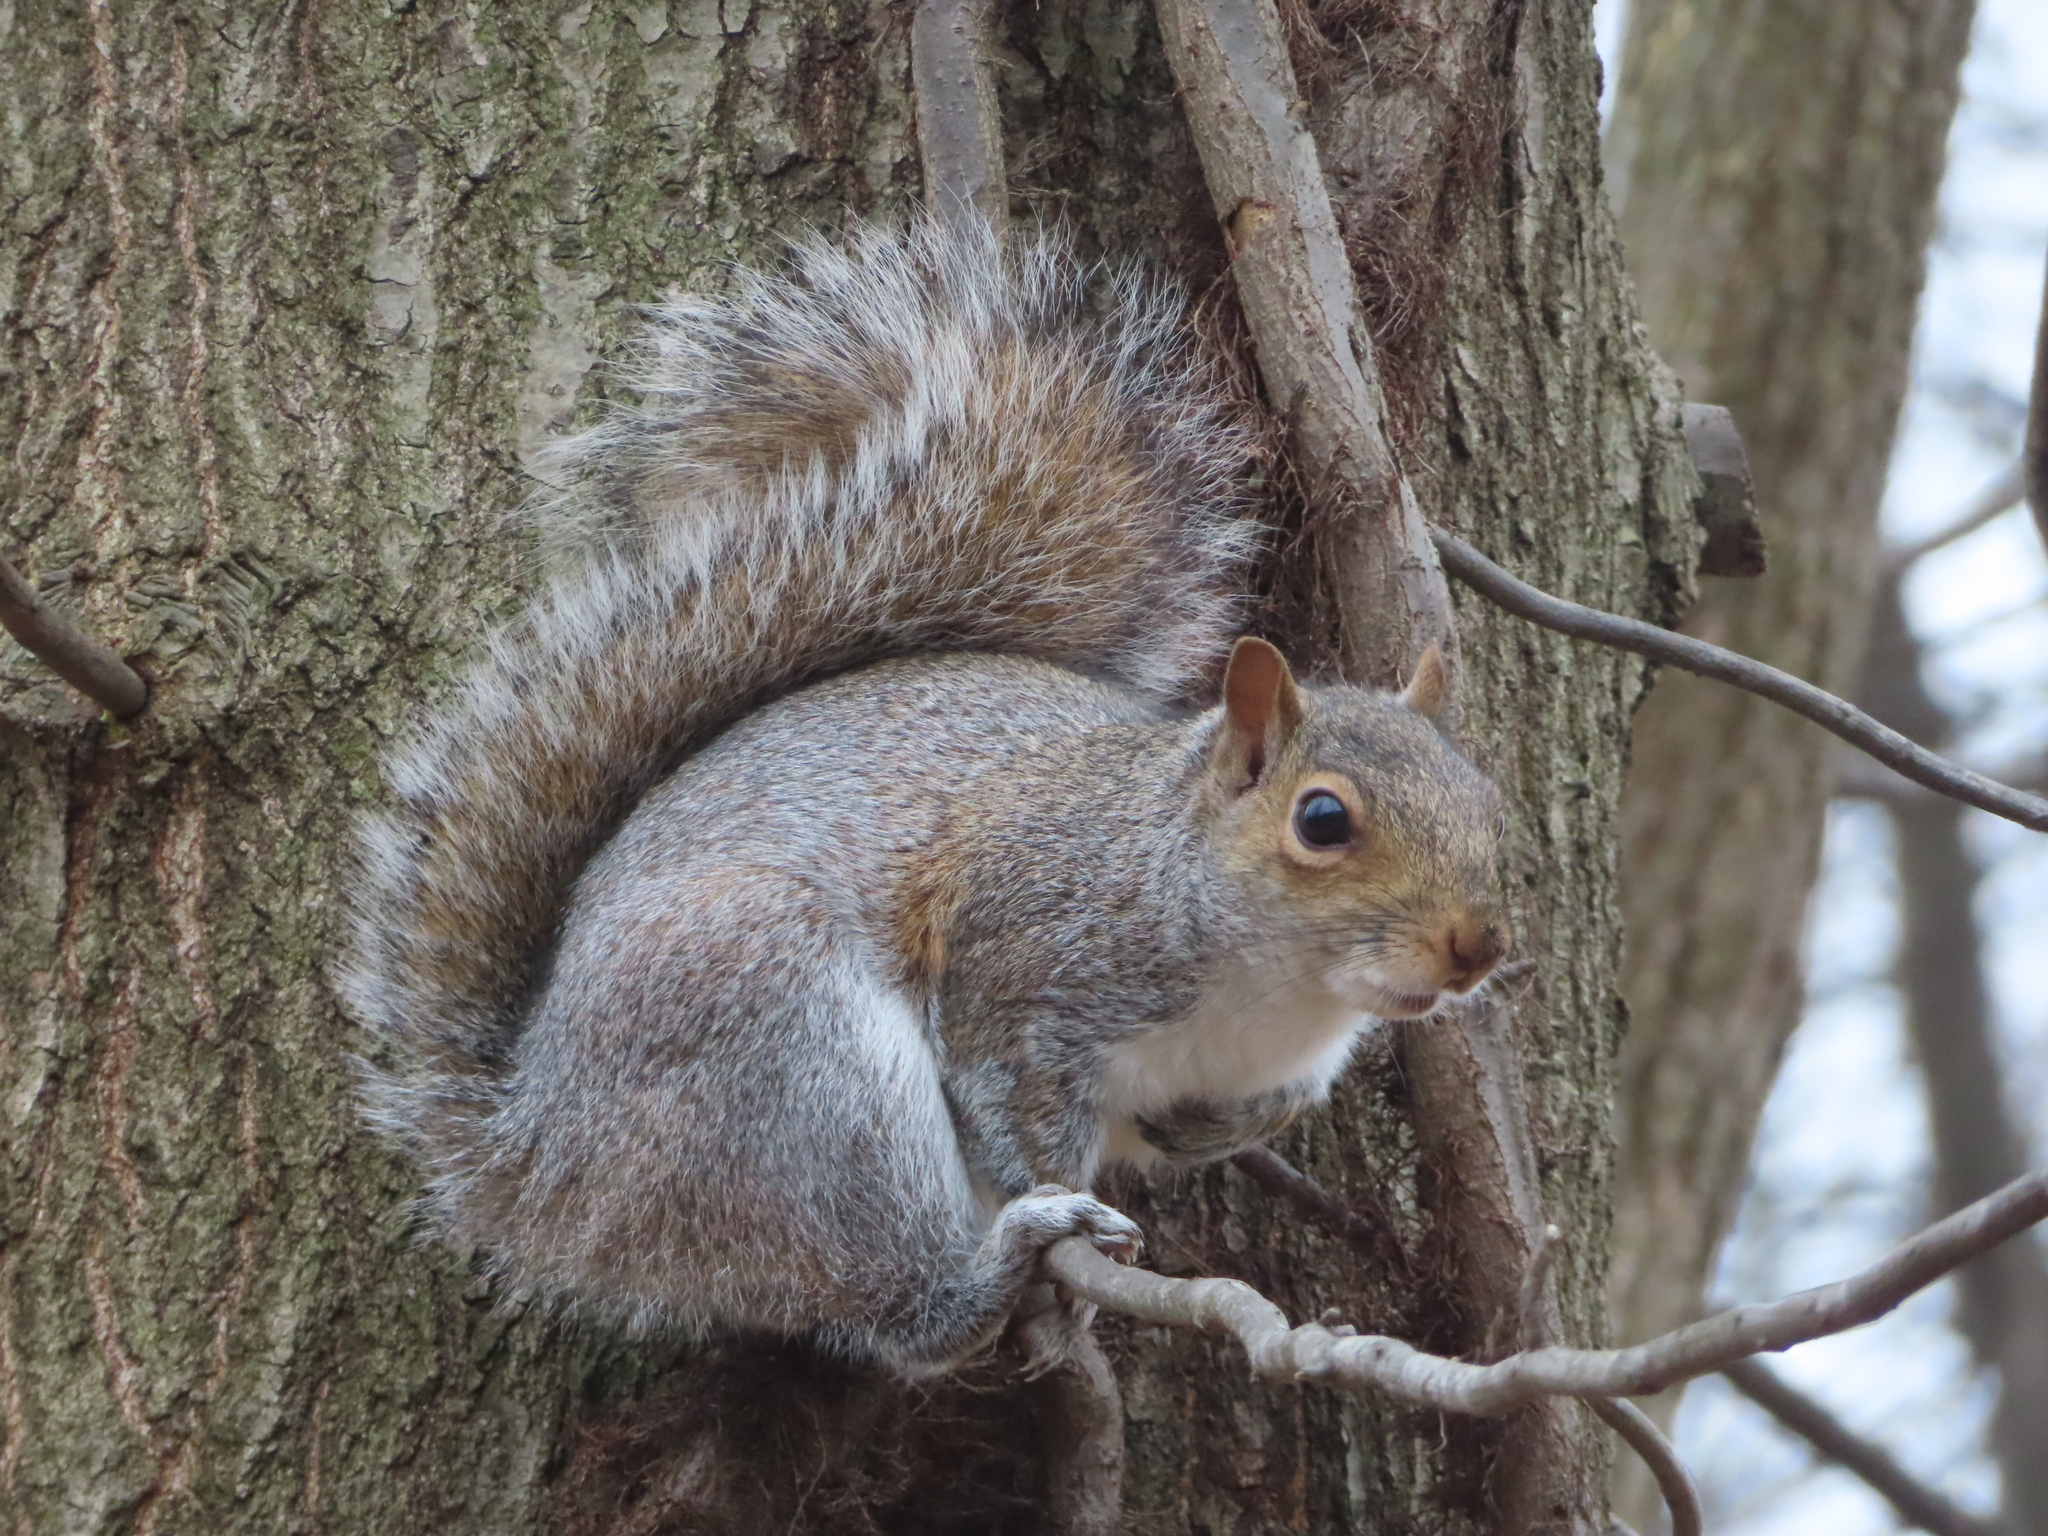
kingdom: Animalia
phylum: Chordata
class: Mammalia
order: Rodentia
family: Sciuridae
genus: Sciurus
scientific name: Sciurus carolinensis
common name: Eastern gray squirrel
